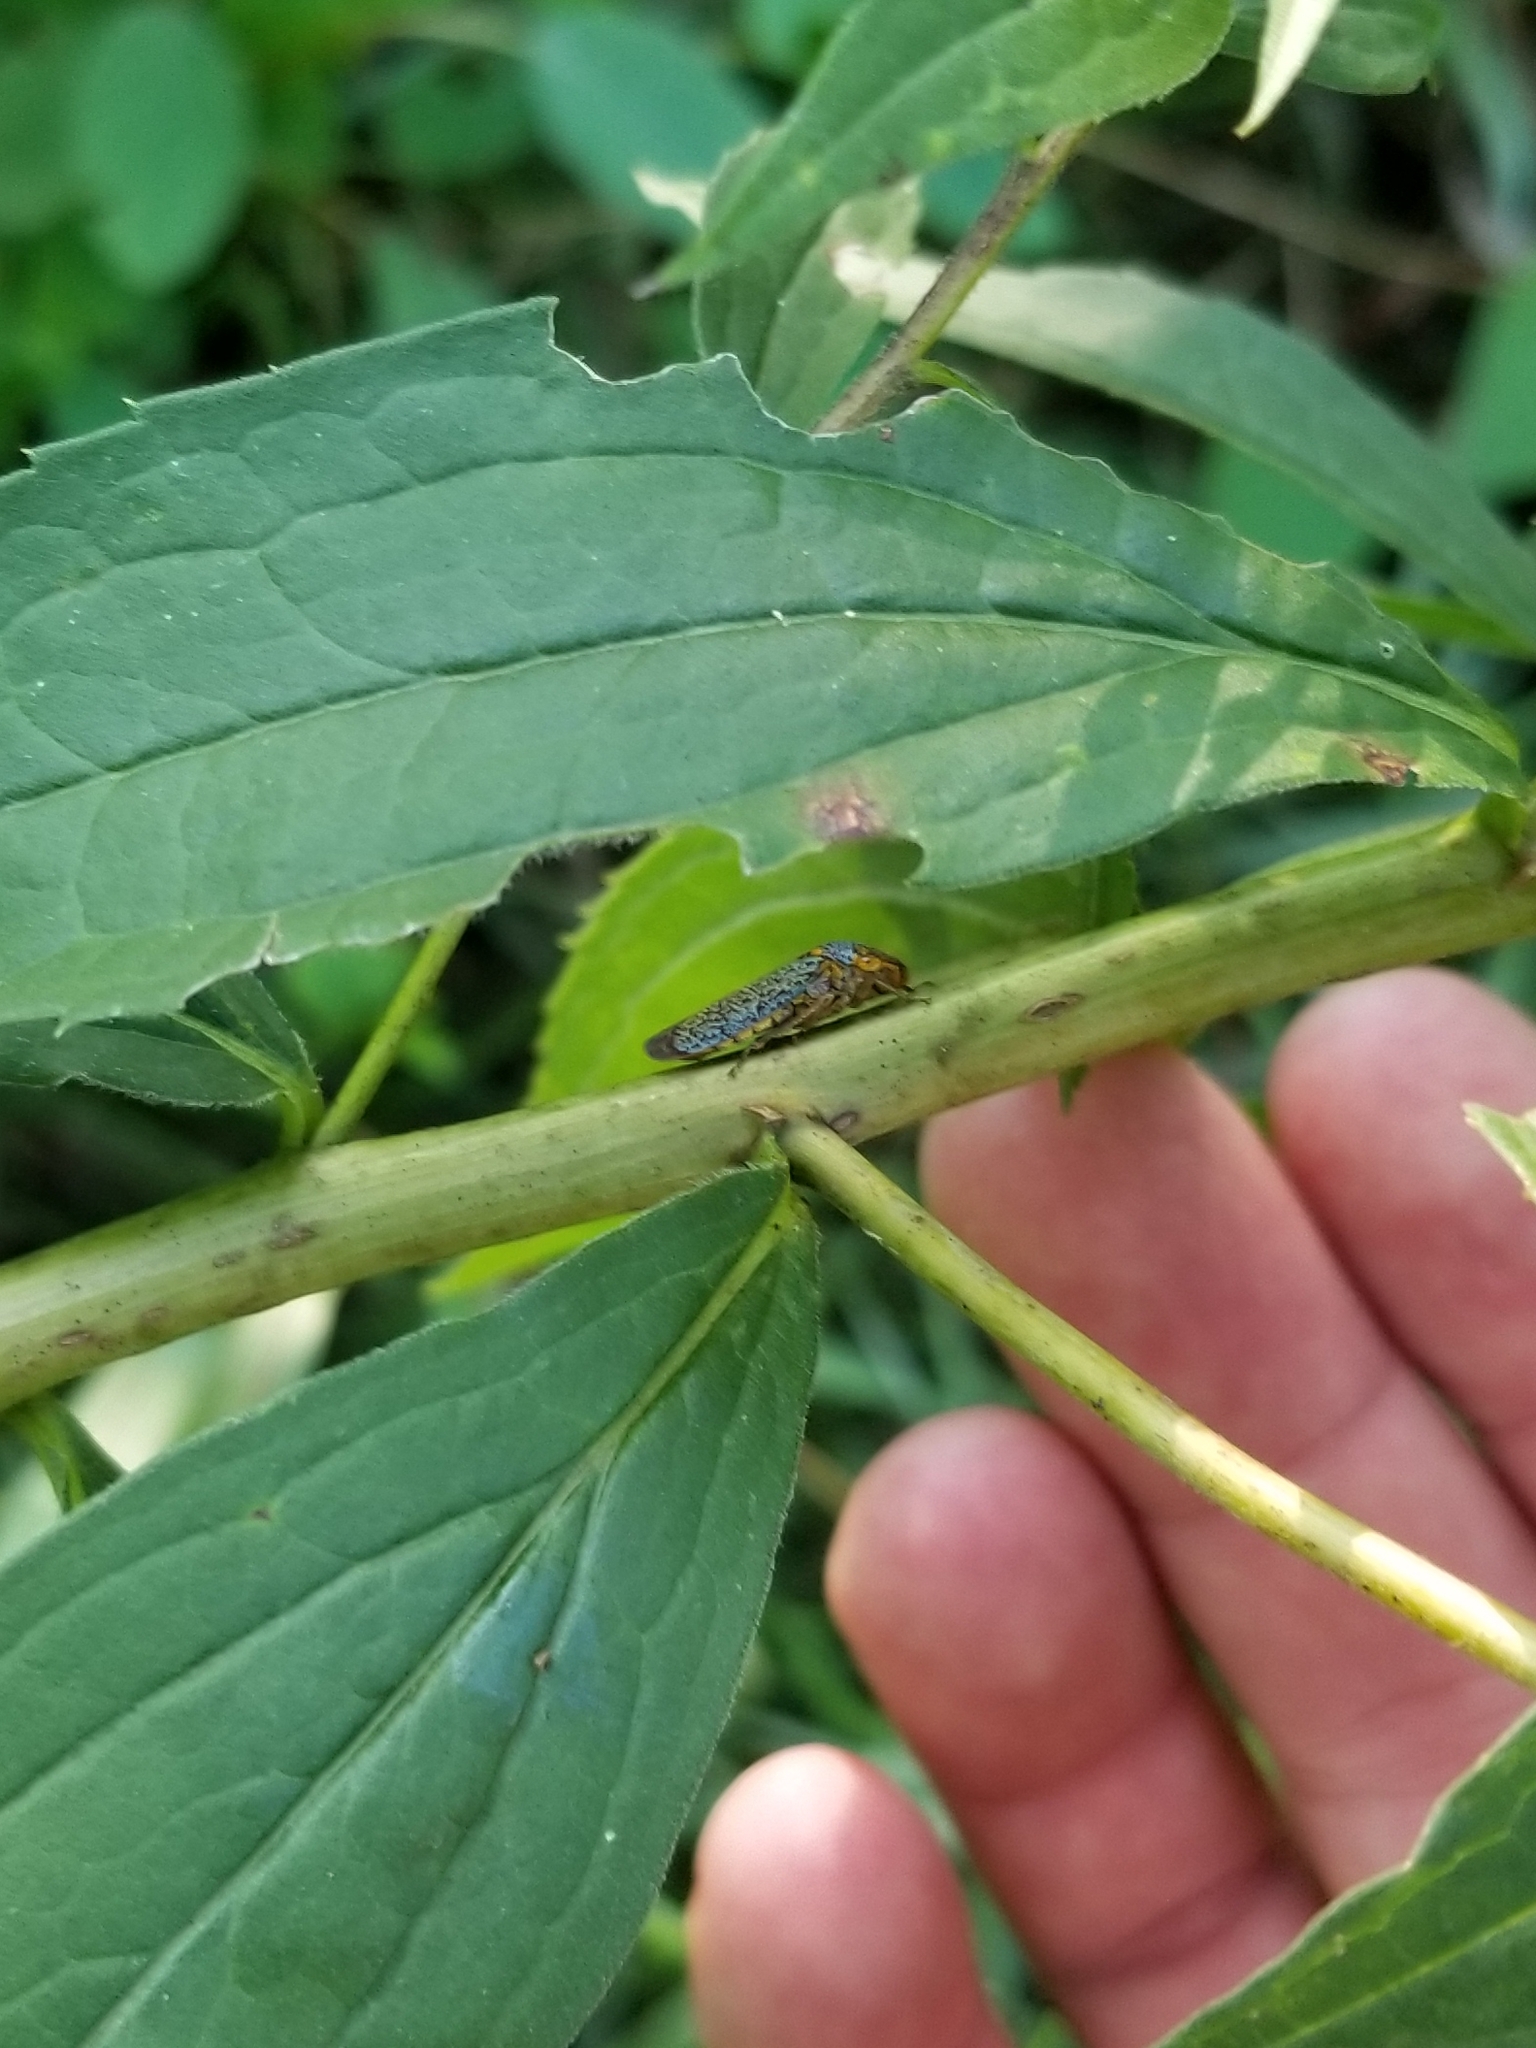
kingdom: Animalia
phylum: Arthropoda
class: Insecta
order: Hemiptera
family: Cicadellidae
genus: Oncometopia
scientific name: Oncometopia orbona
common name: Broad-headed sharpshooter
